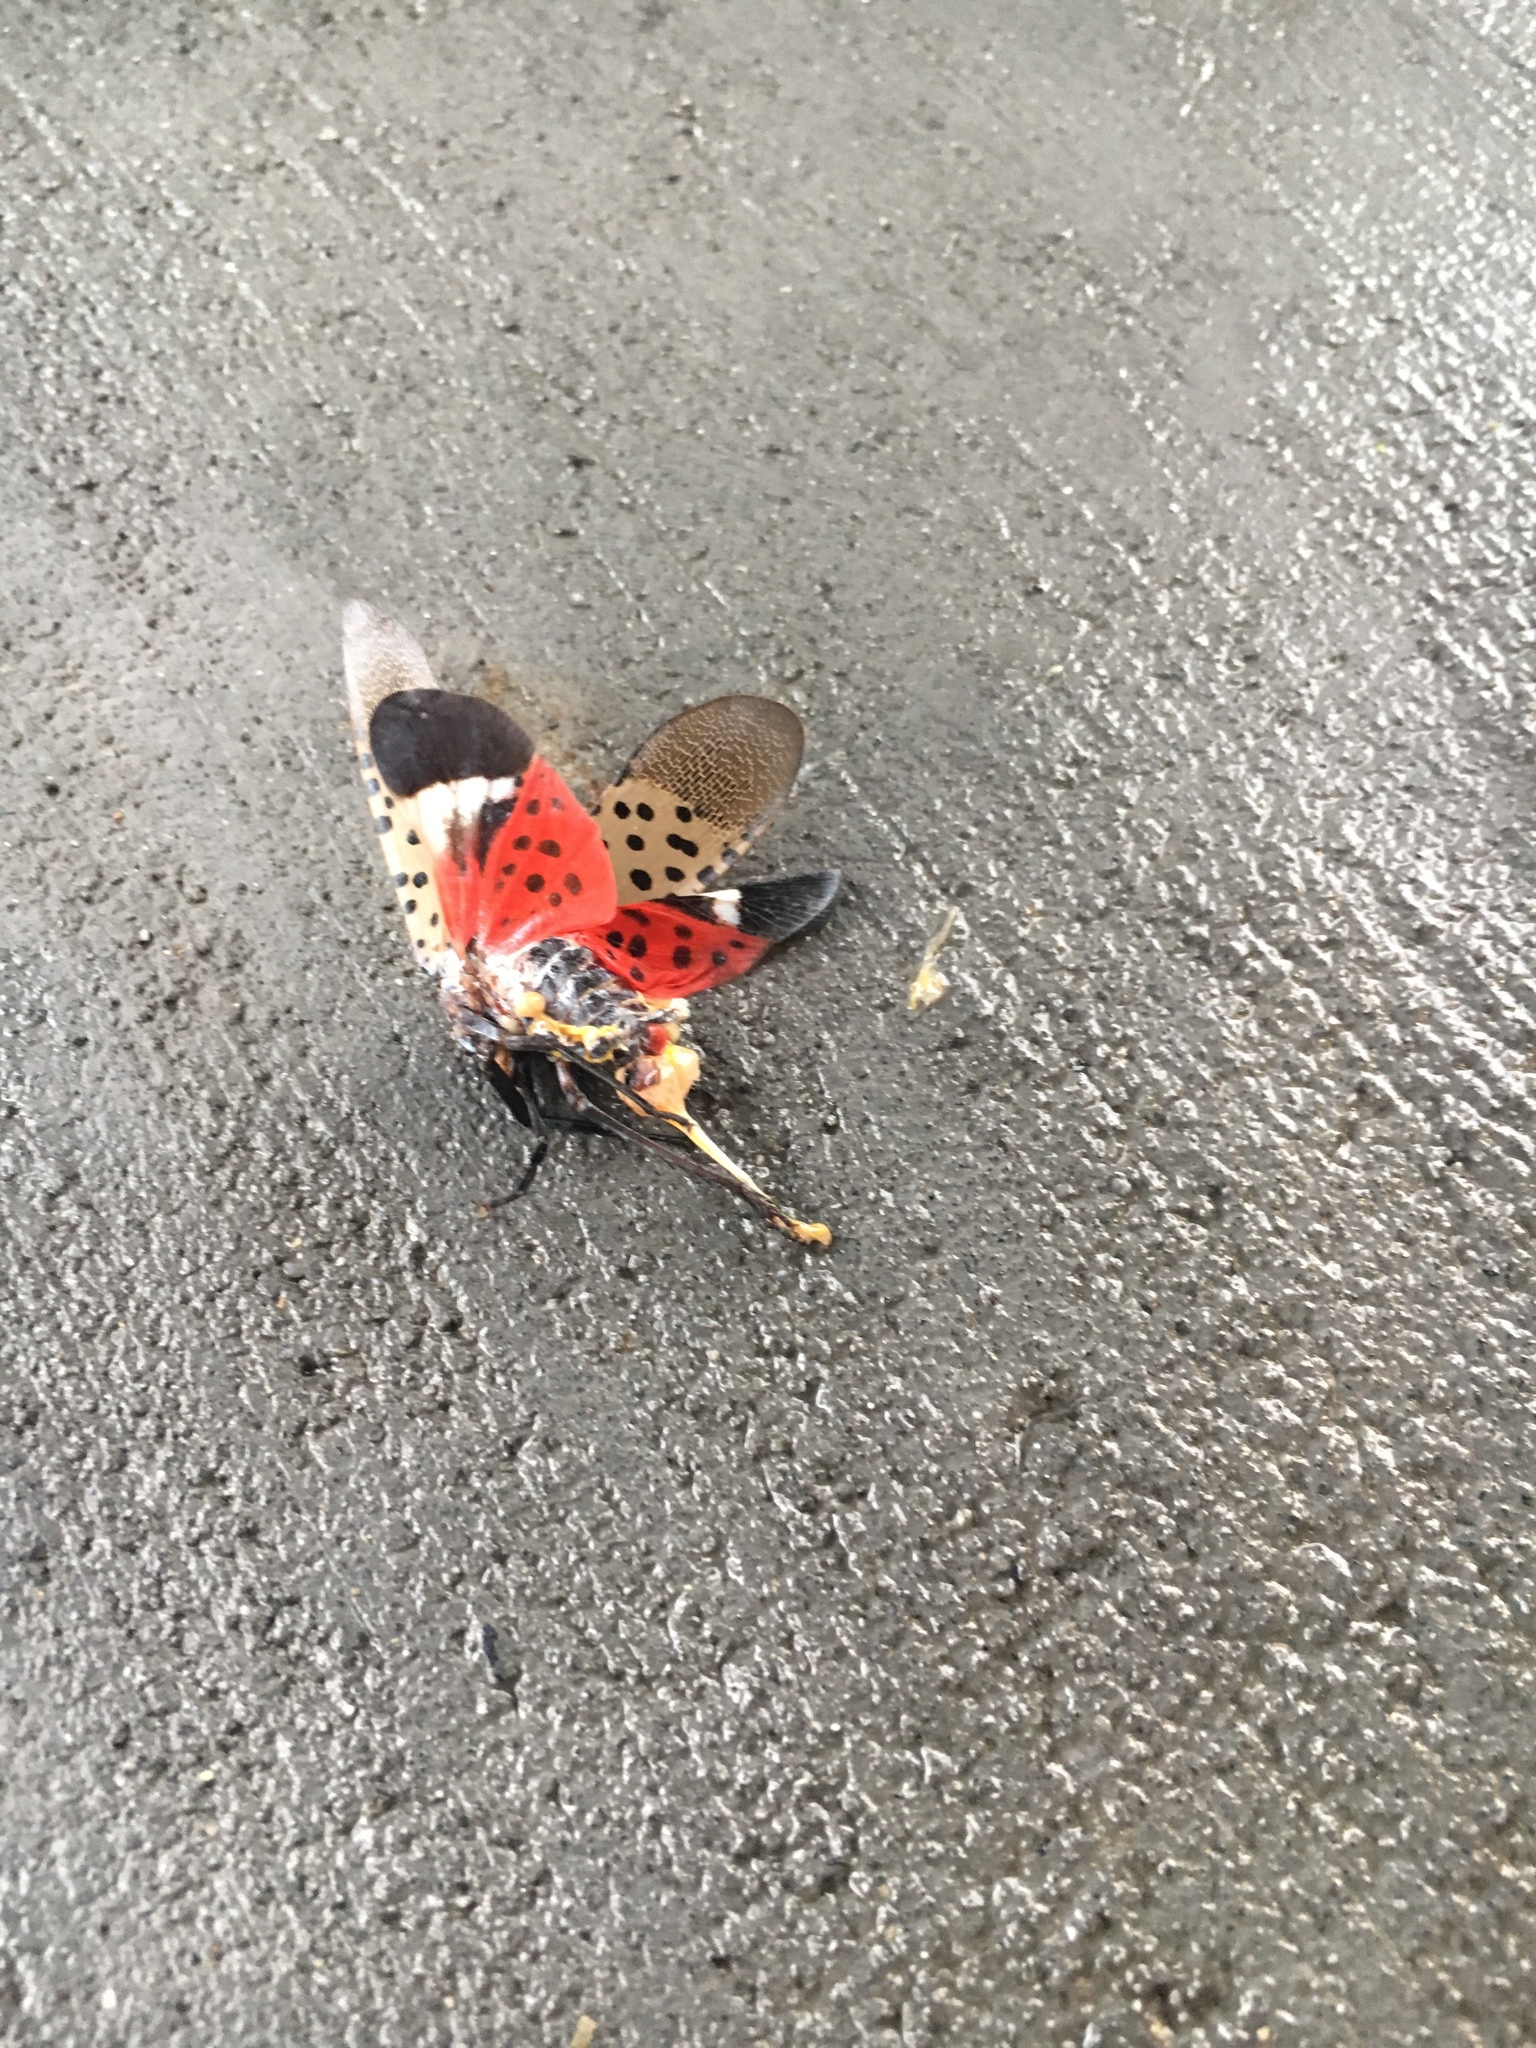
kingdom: Animalia
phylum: Arthropoda
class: Insecta
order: Hemiptera
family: Fulgoridae
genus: Lycorma
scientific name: Lycorma delicatula
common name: Spotted lanternfly
